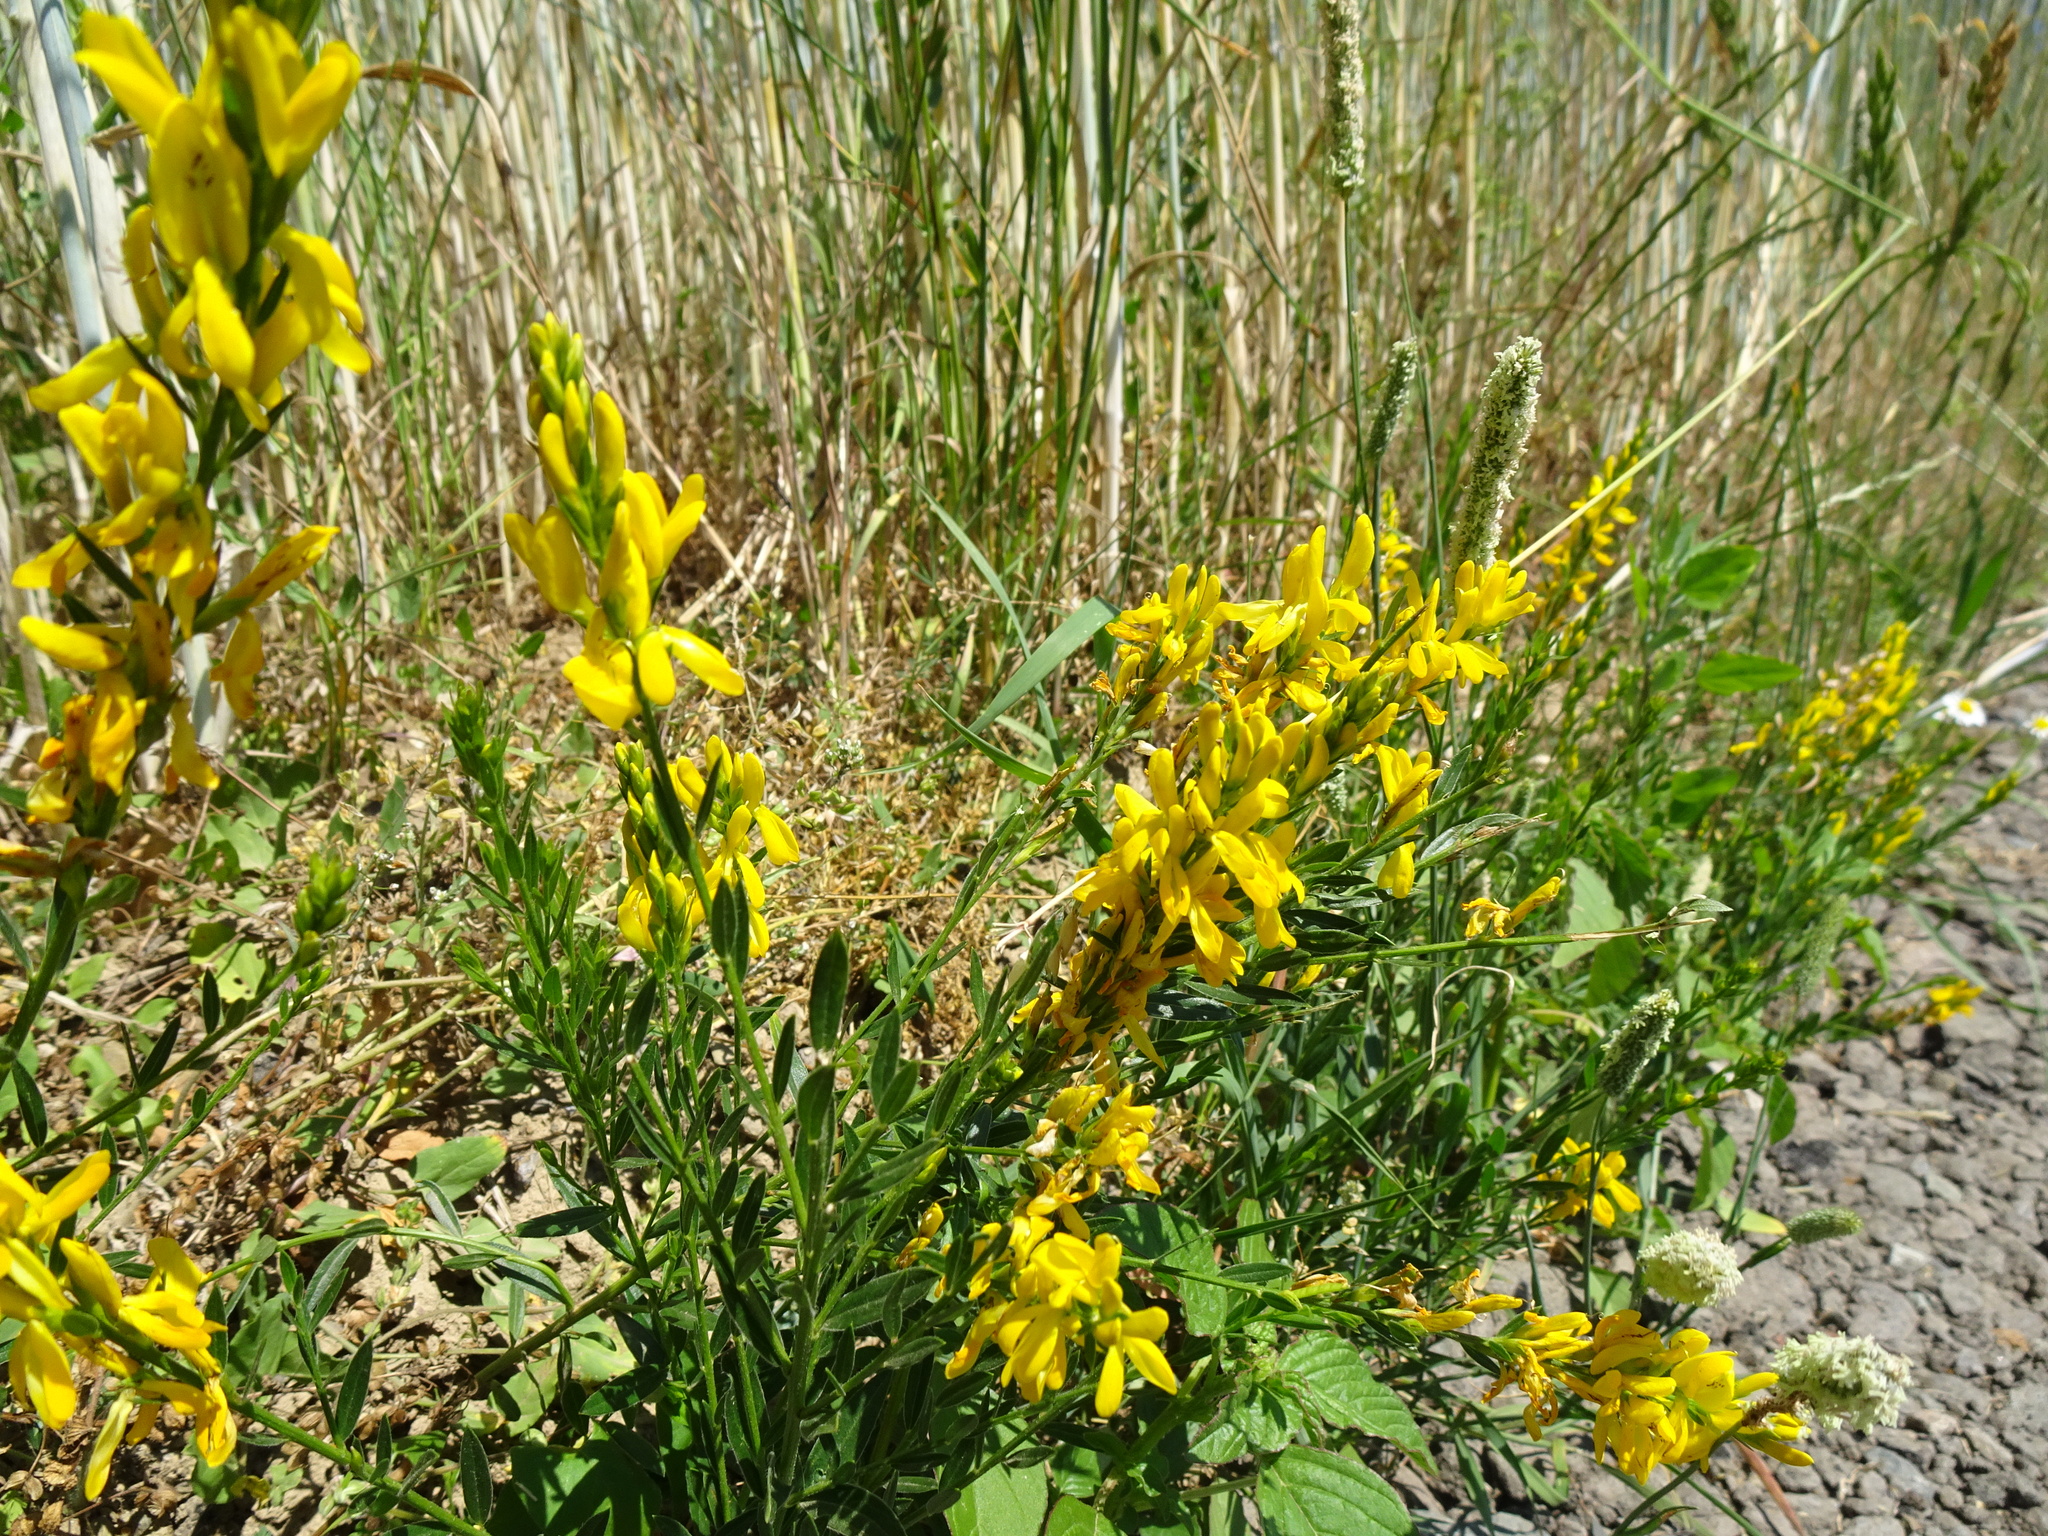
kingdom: Plantae
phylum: Tracheophyta
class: Magnoliopsida
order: Fabales
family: Fabaceae
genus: Genista
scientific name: Genista tinctoria
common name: Dyer's greenweed
